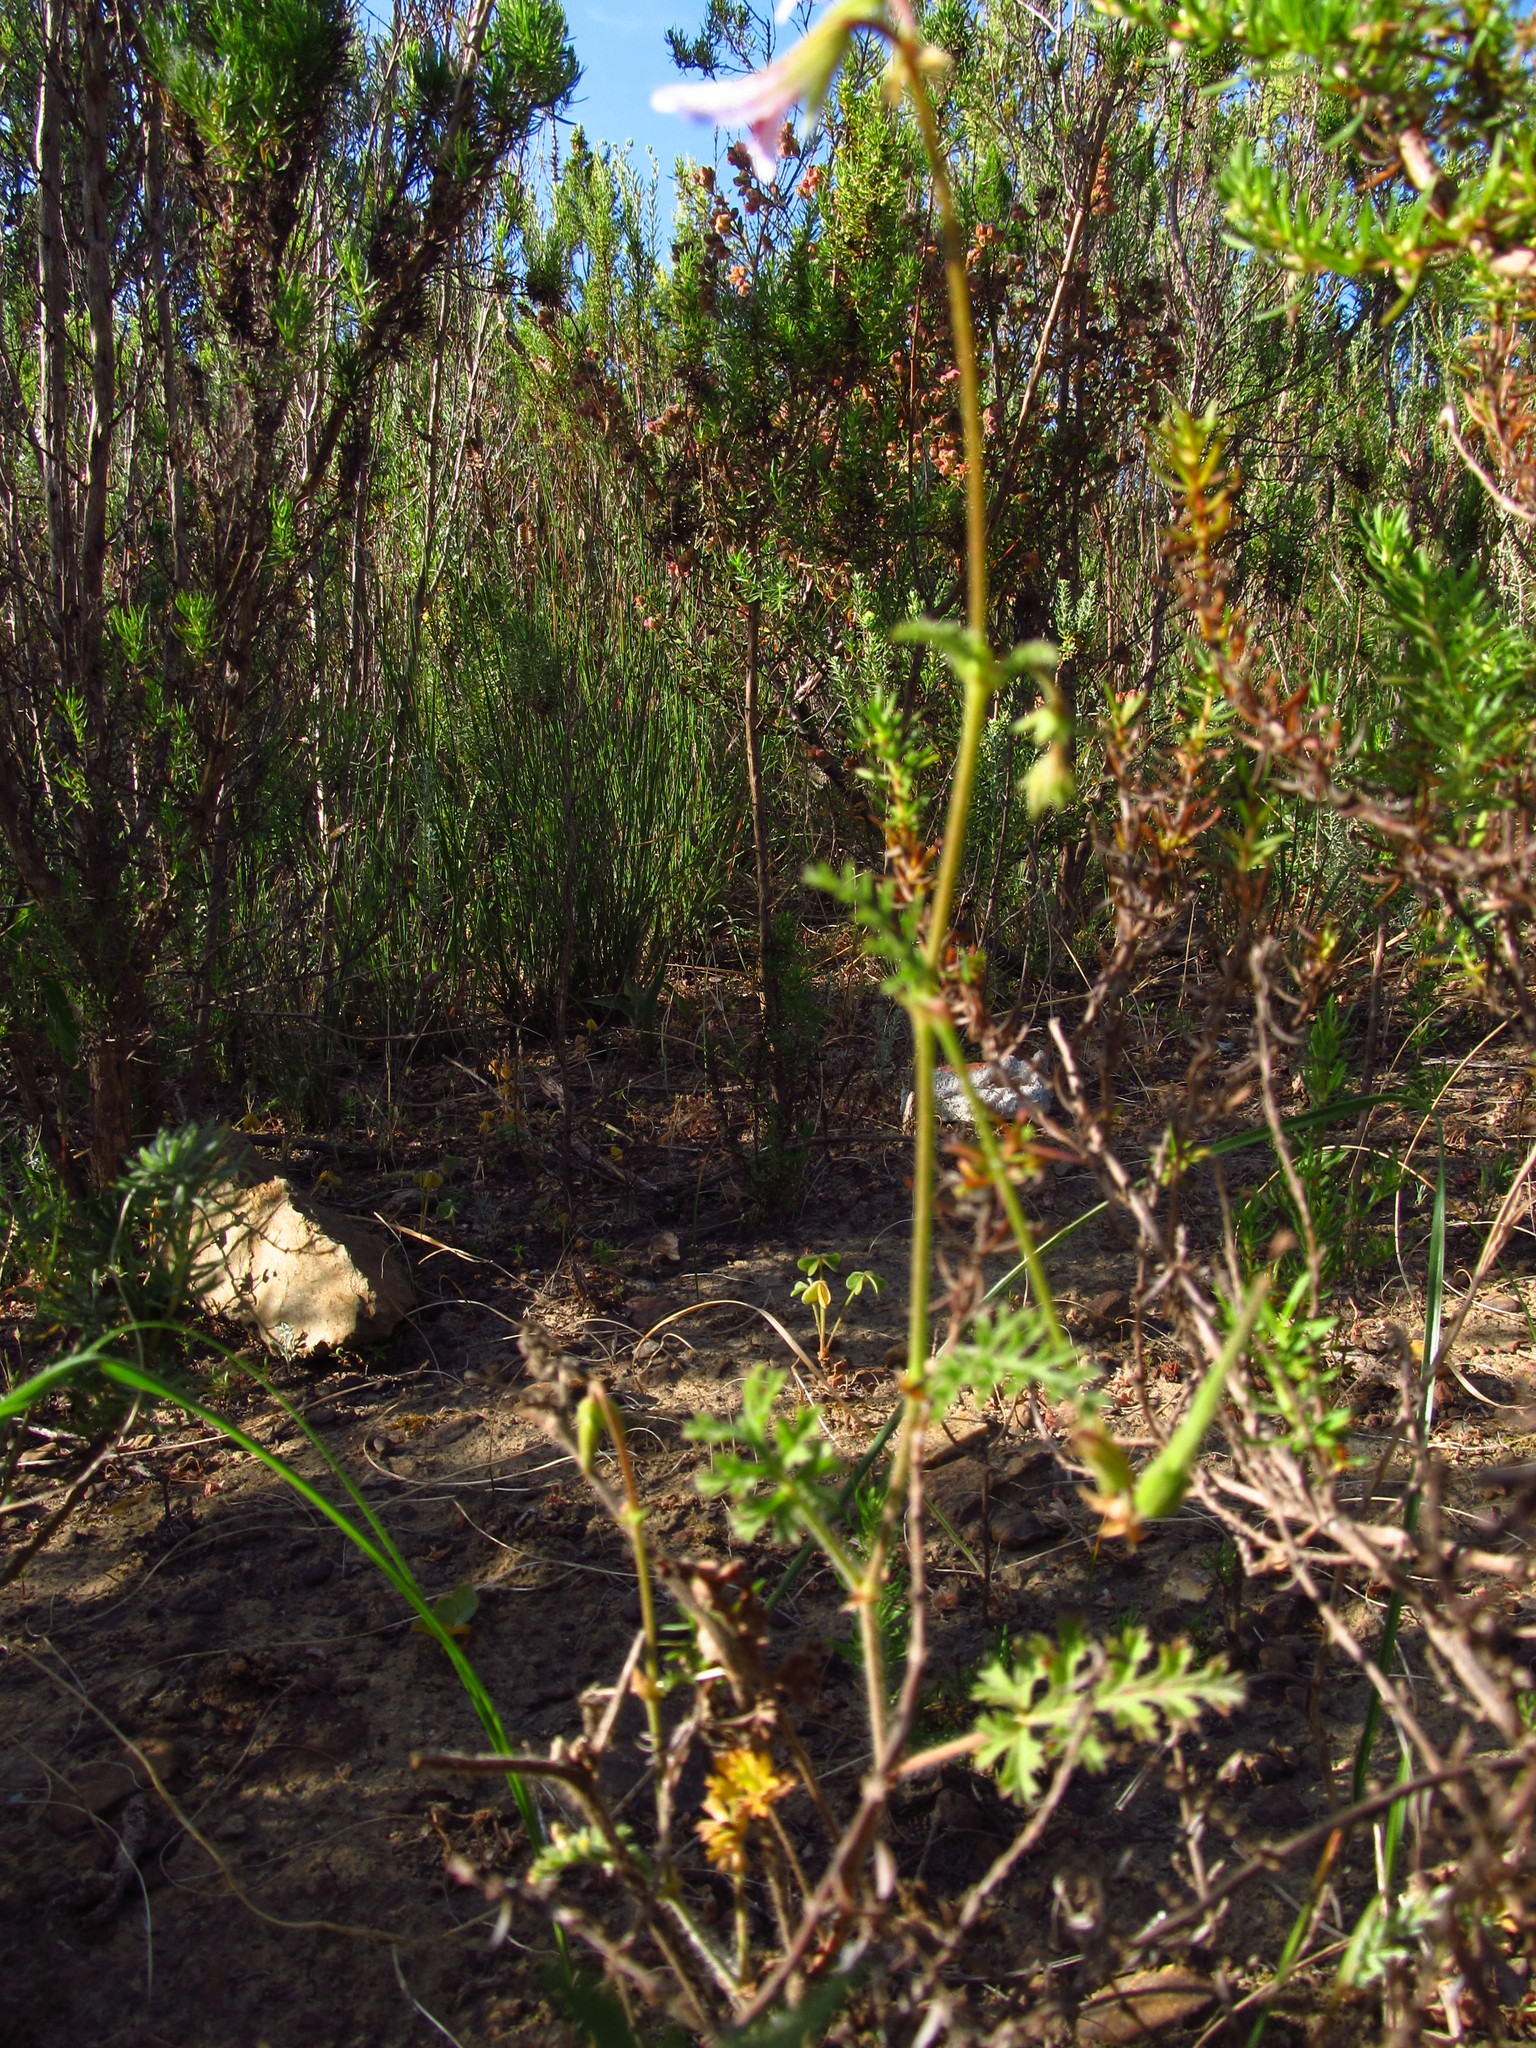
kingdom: Plantae
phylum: Tracheophyta
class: Magnoliopsida
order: Geraniales
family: Geraniaceae
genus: Pelargonium
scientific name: Pelargonium myrrhifolium
